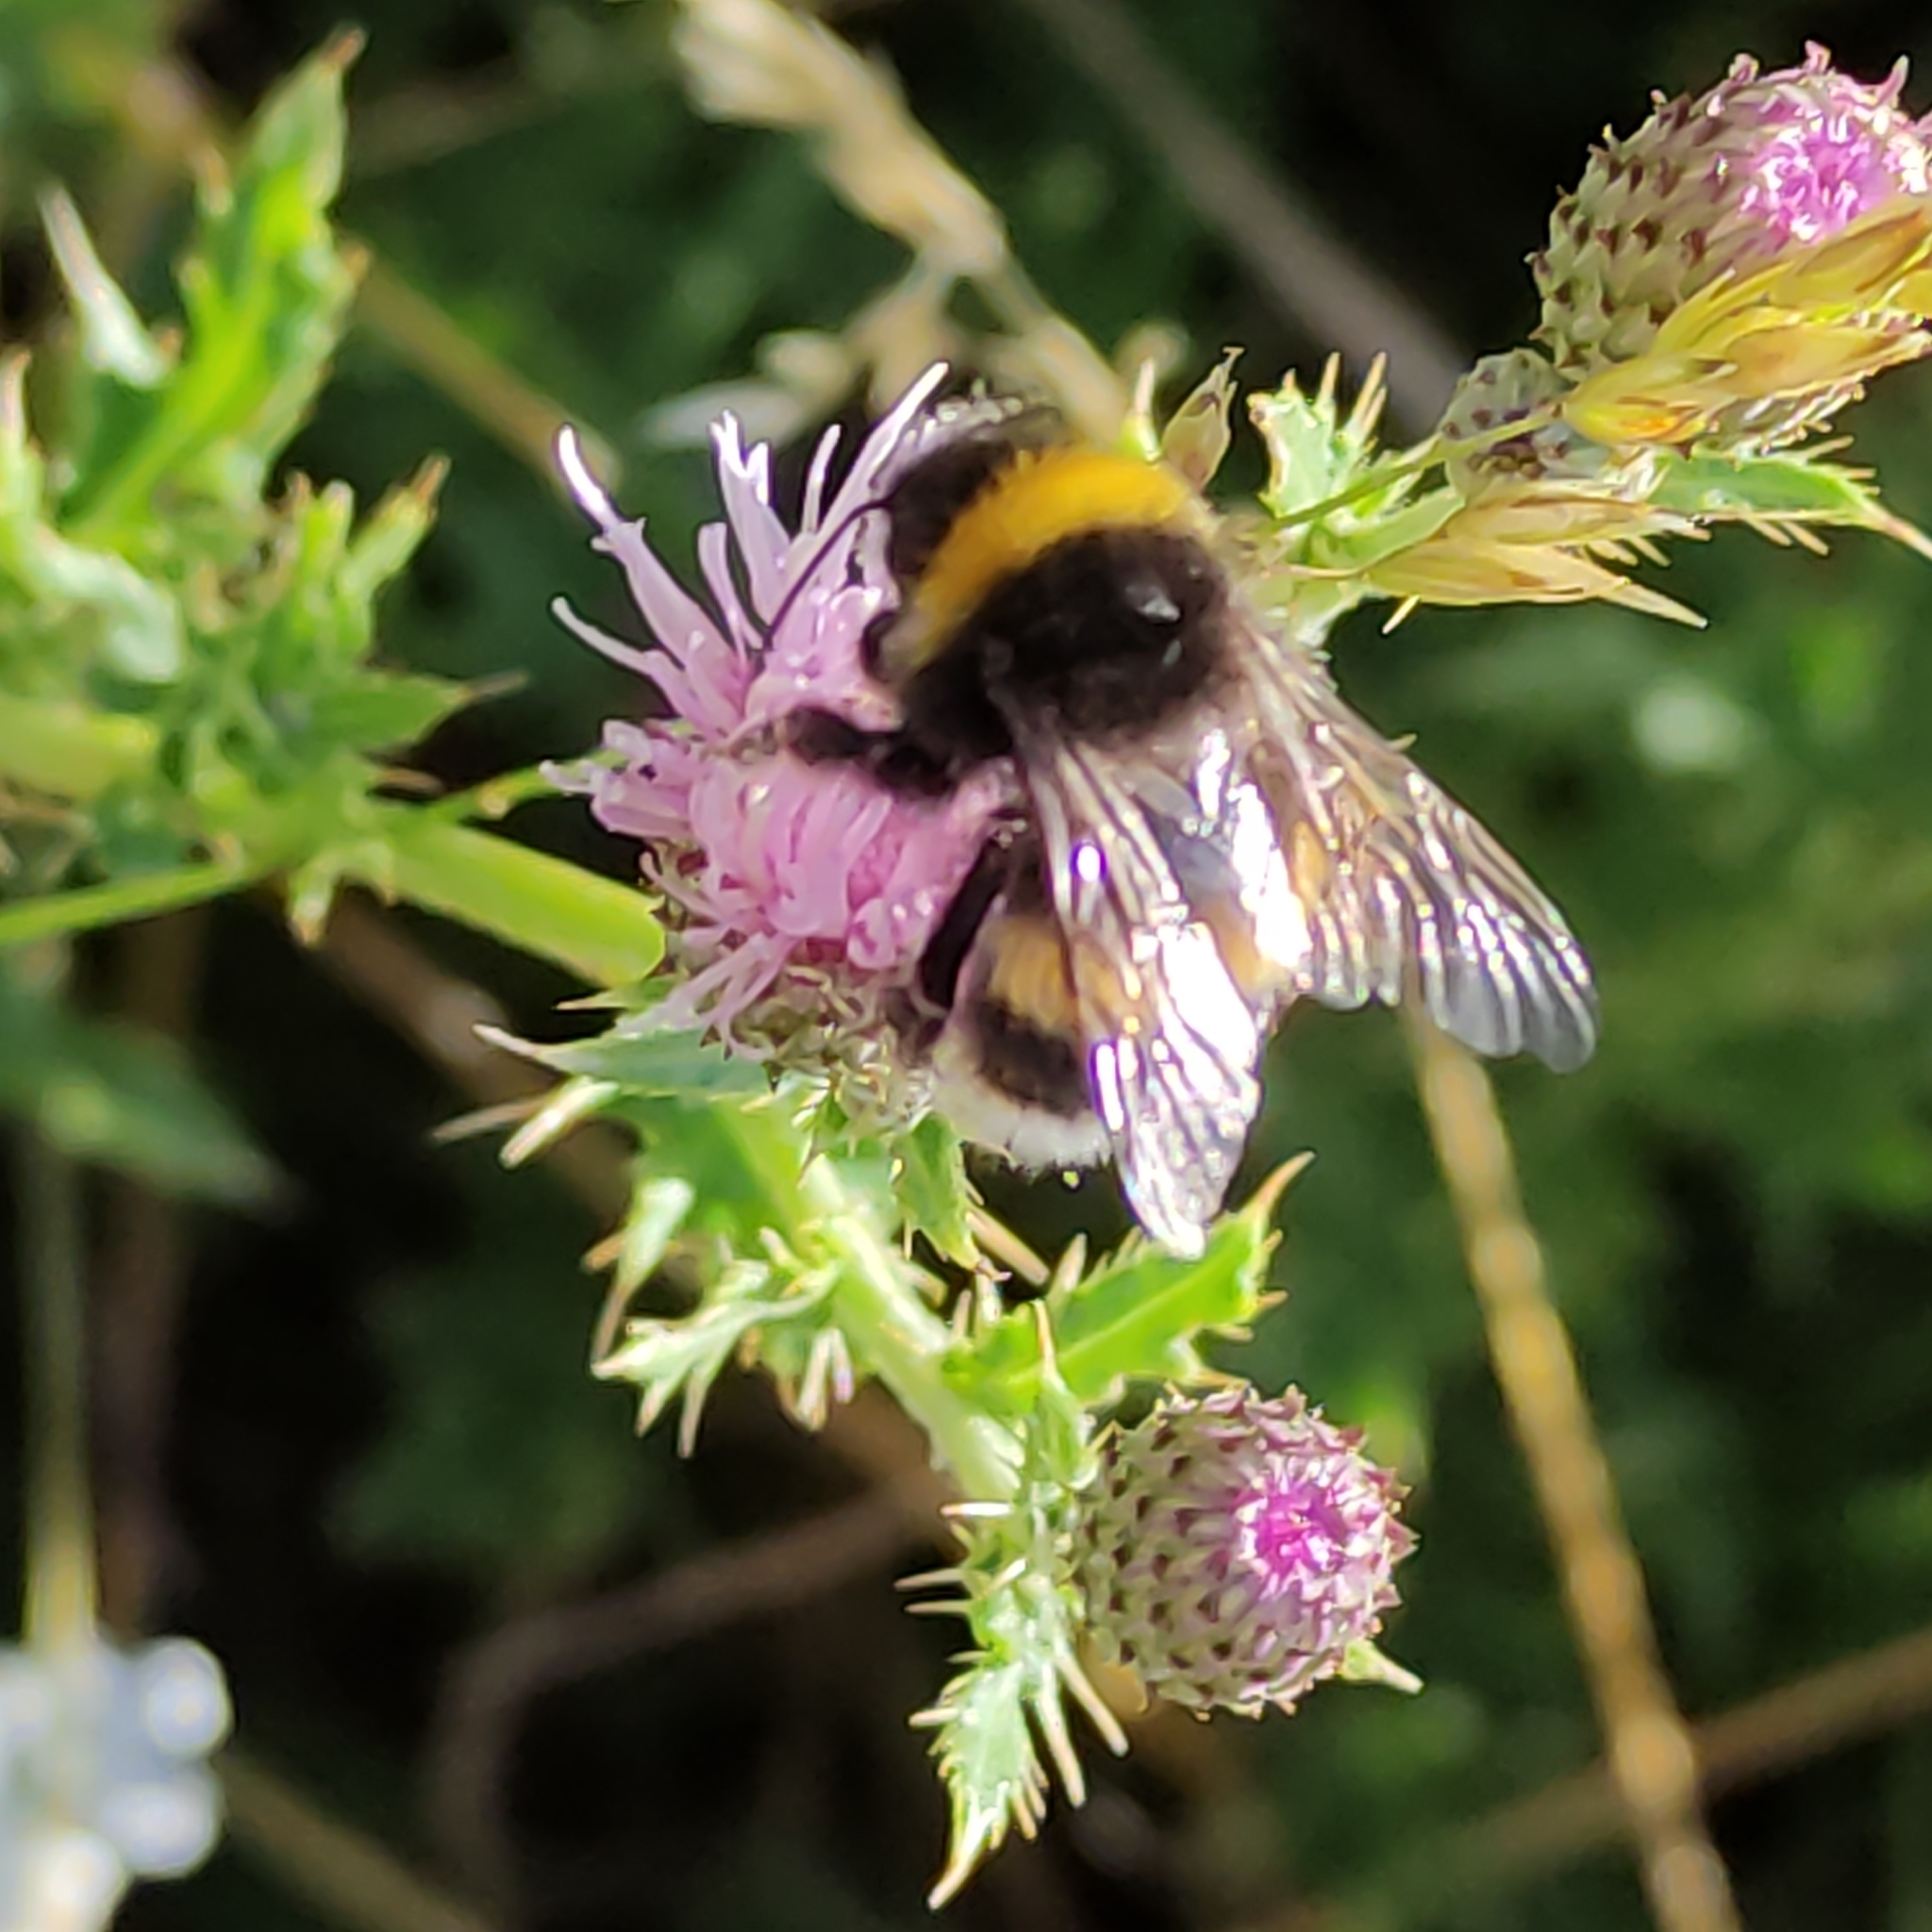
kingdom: Animalia
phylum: Arthropoda
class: Insecta
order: Hymenoptera
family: Apidae
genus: Bombus
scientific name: Bombus terrestris
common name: Buff-tailed bumblebee
